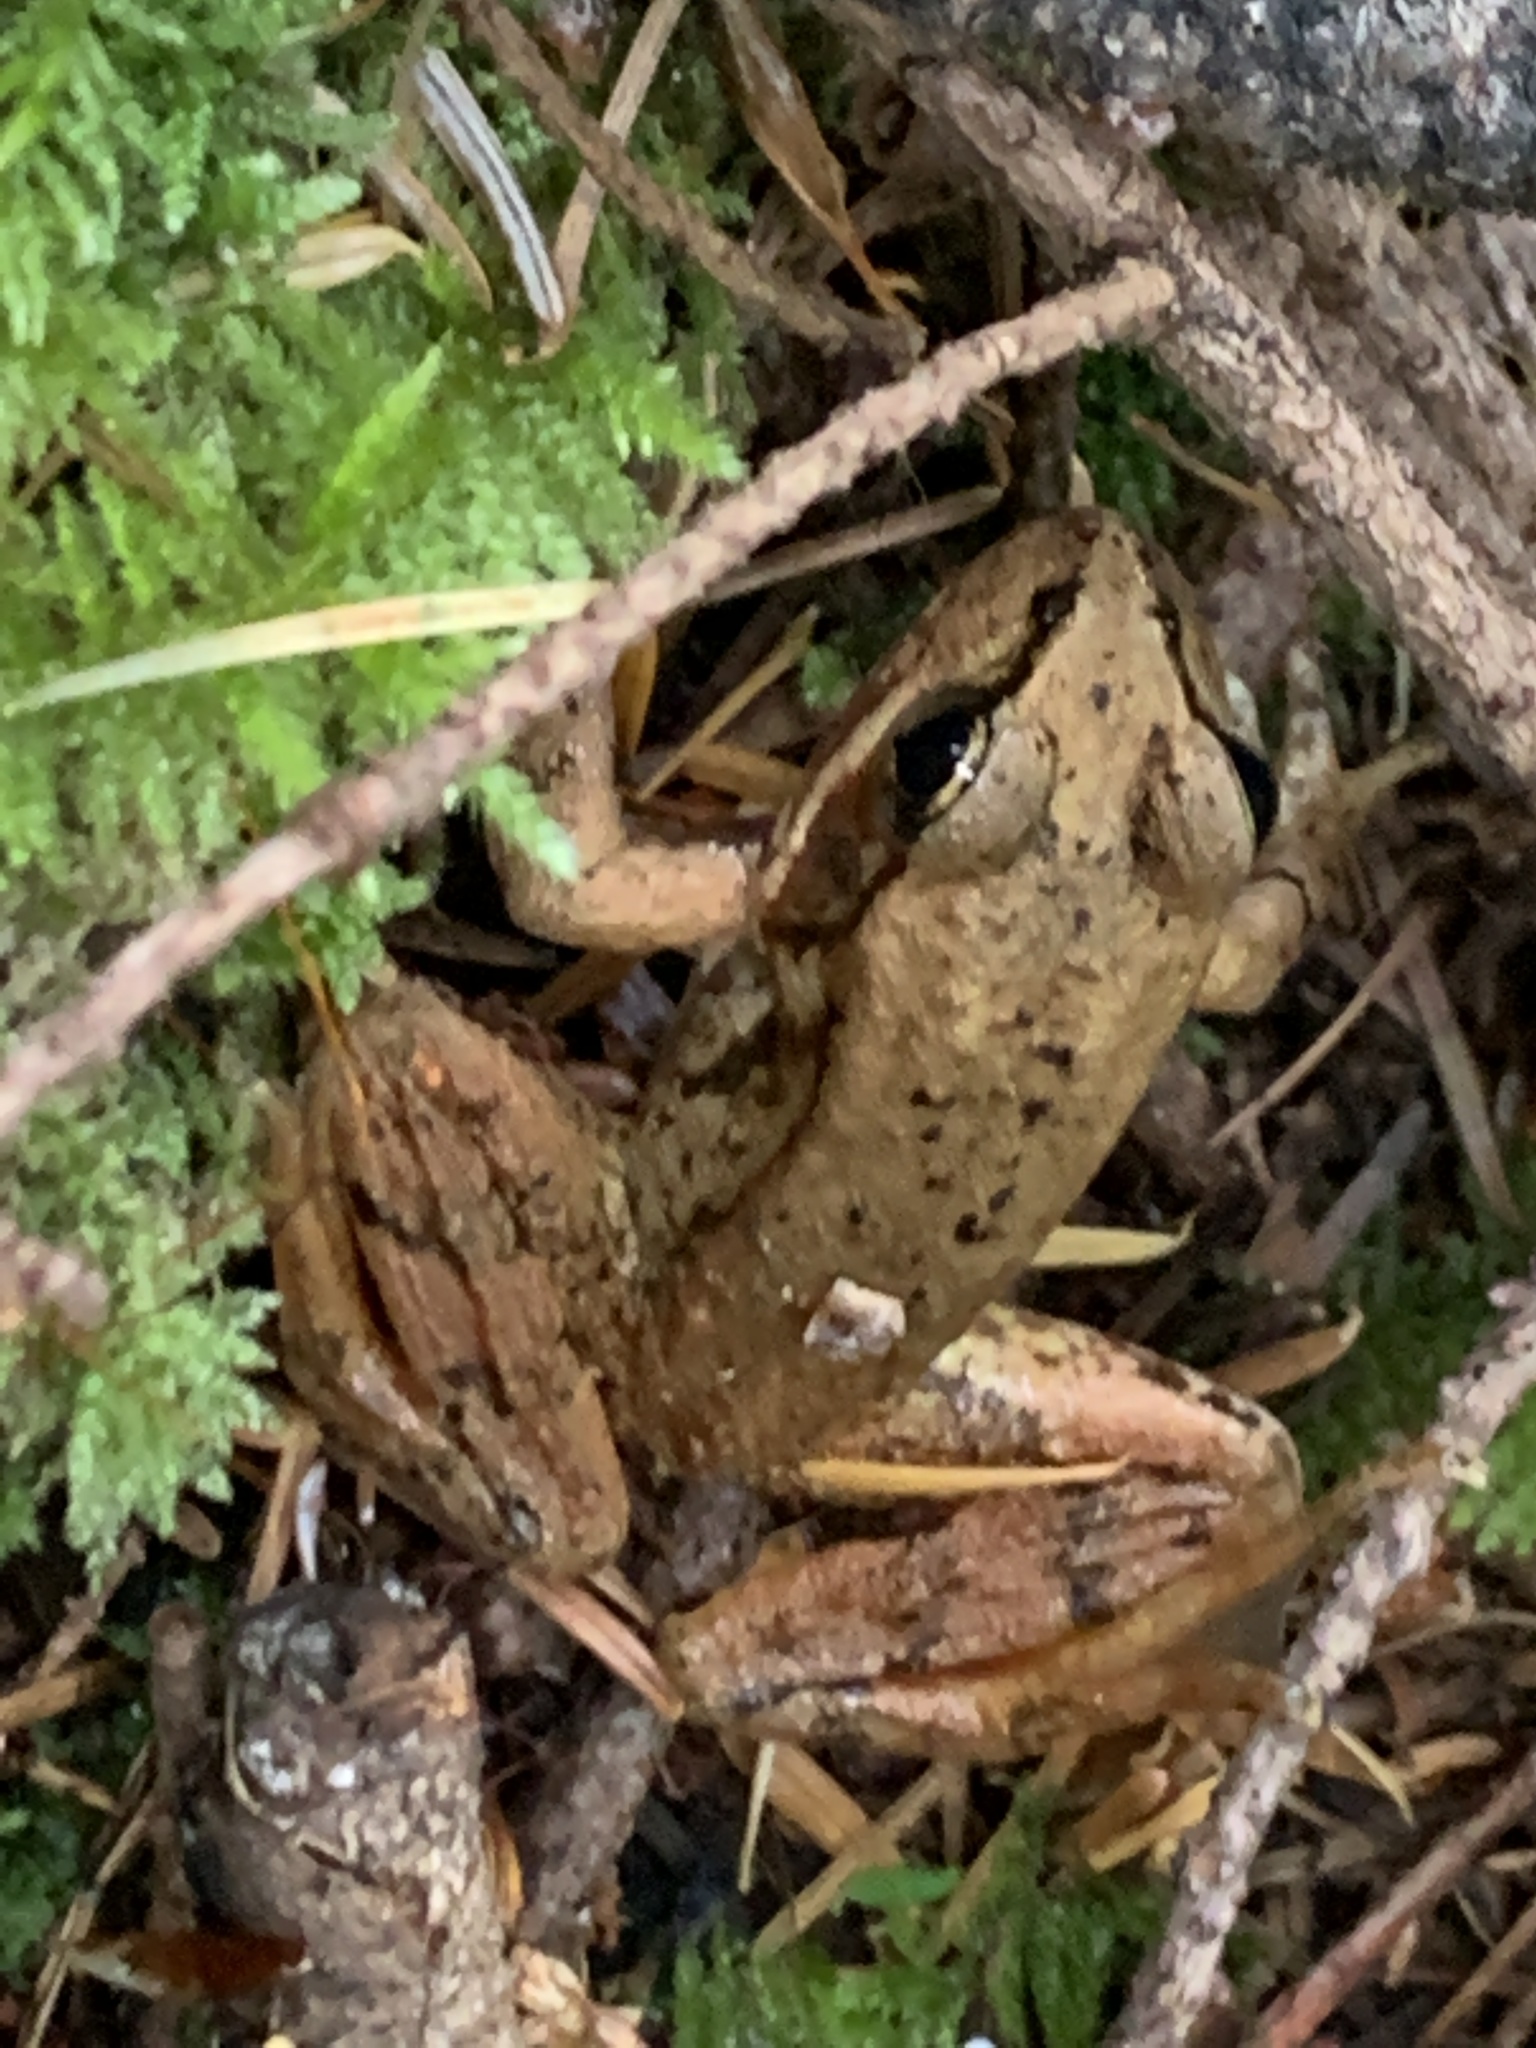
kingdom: Animalia
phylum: Chordata
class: Amphibia
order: Anura
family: Ranidae
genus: Rana
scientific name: Rana aurora
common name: Red-legged frog
